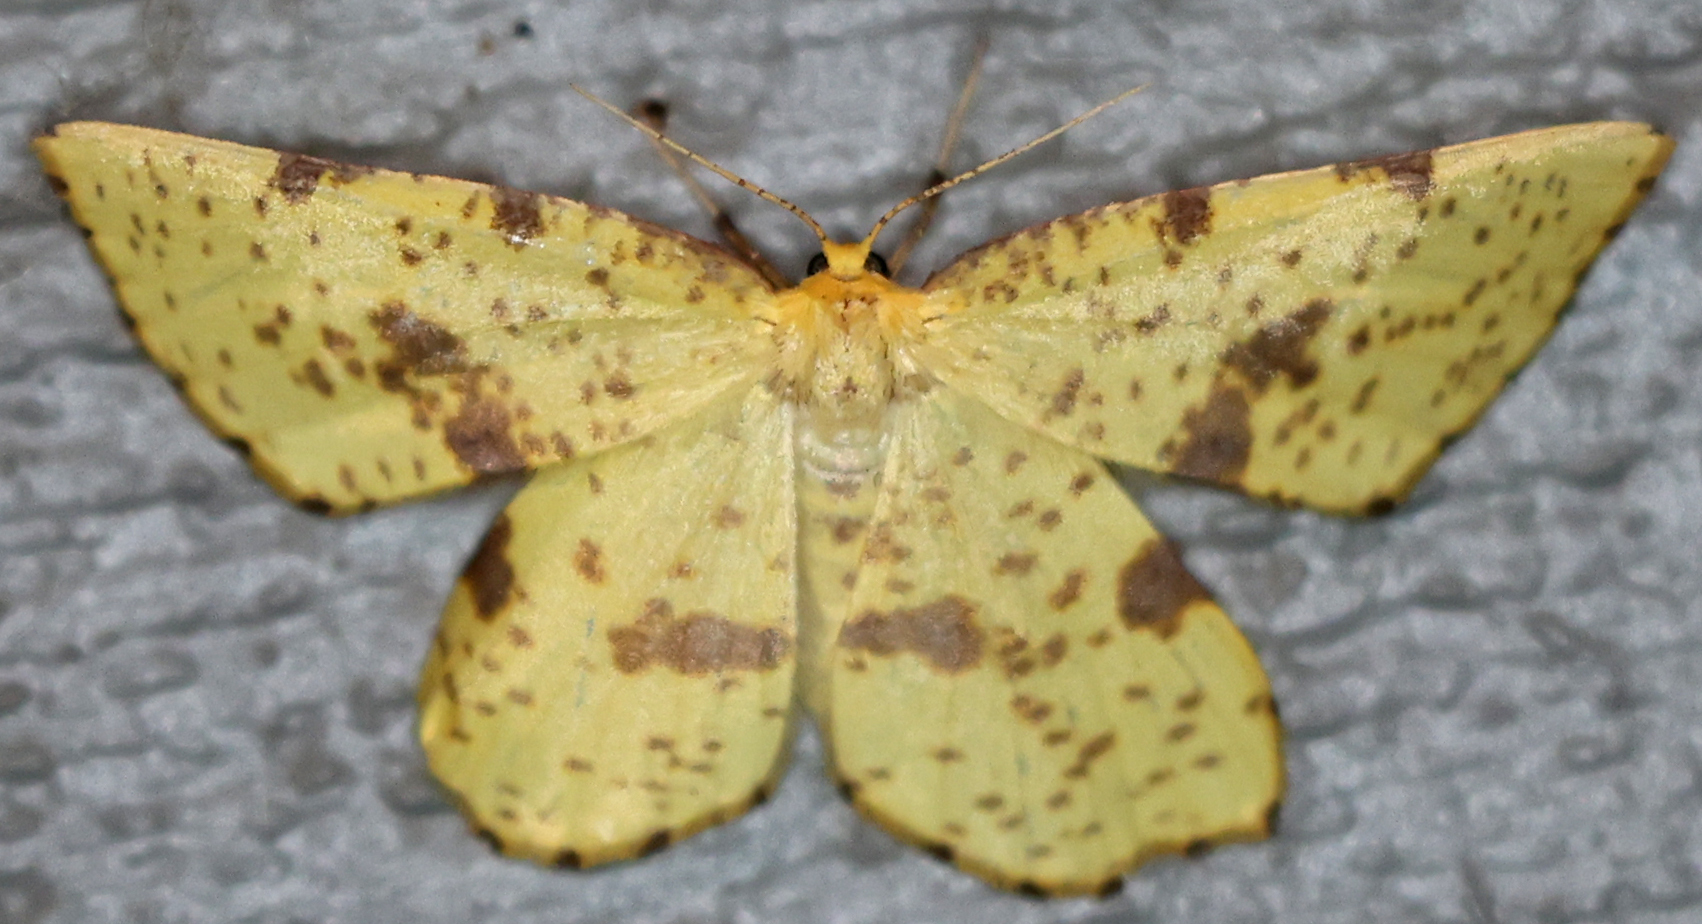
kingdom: Animalia
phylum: Arthropoda
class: Insecta
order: Lepidoptera
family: Geometridae
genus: Xanthotype
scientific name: Xanthotype
